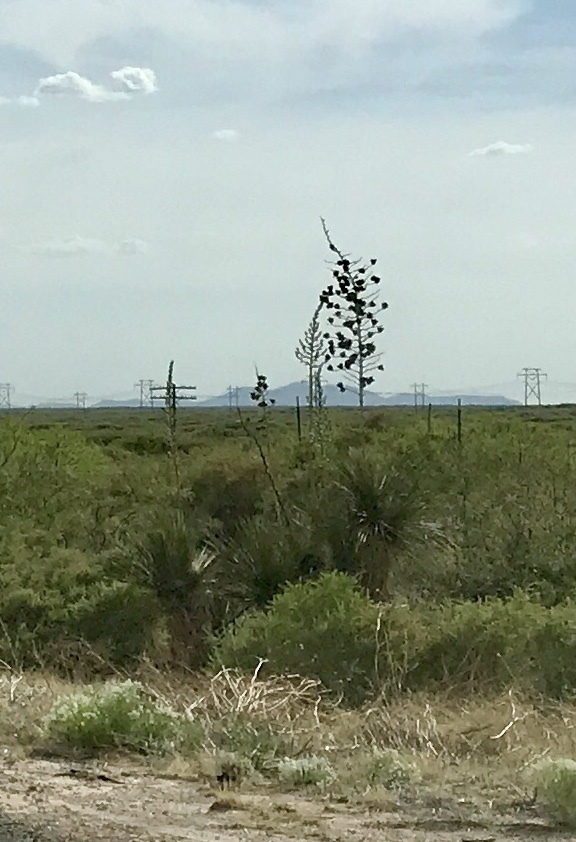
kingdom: Plantae
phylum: Tracheophyta
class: Liliopsida
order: Asparagales
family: Asparagaceae
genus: Yucca
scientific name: Yucca elata
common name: Palmella
